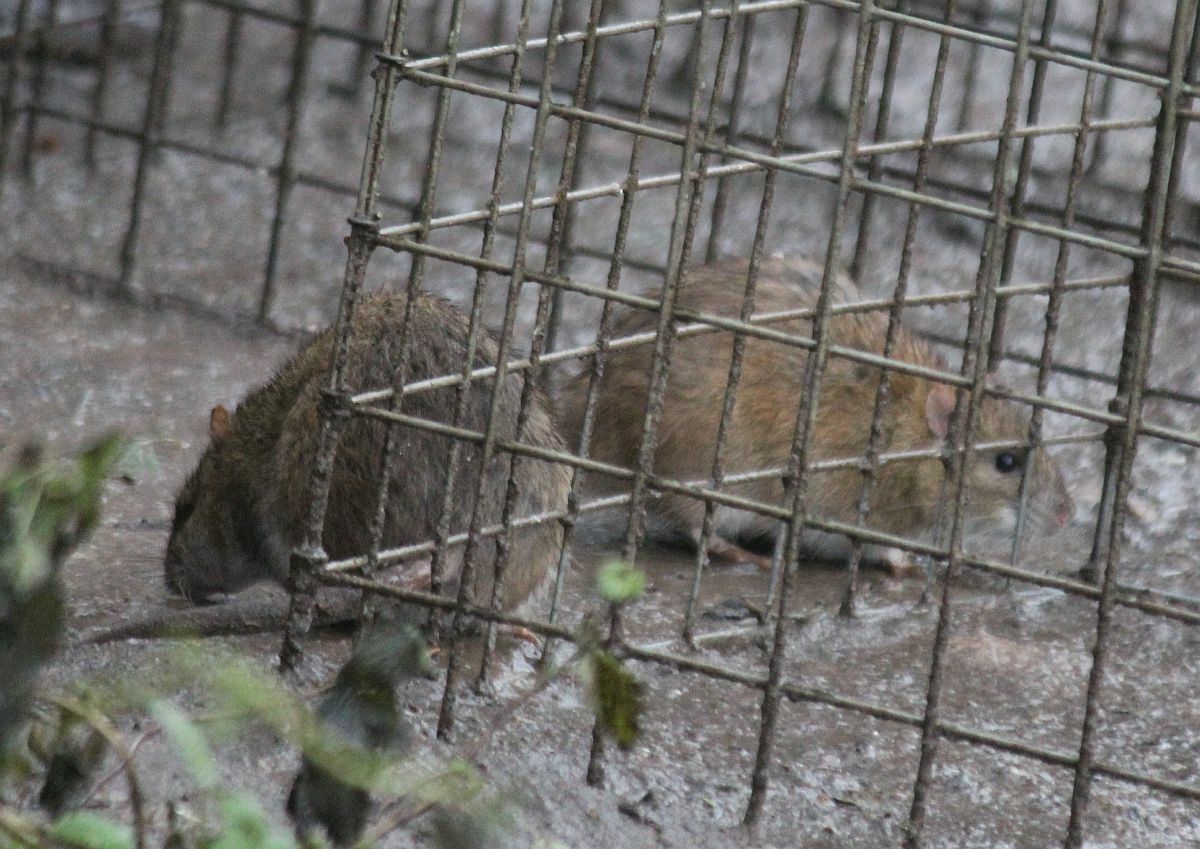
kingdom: Animalia
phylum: Chordata
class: Mammalia
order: Rodentia
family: Muridae
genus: Rattus
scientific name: Rattus norvegicus
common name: Brown rat
